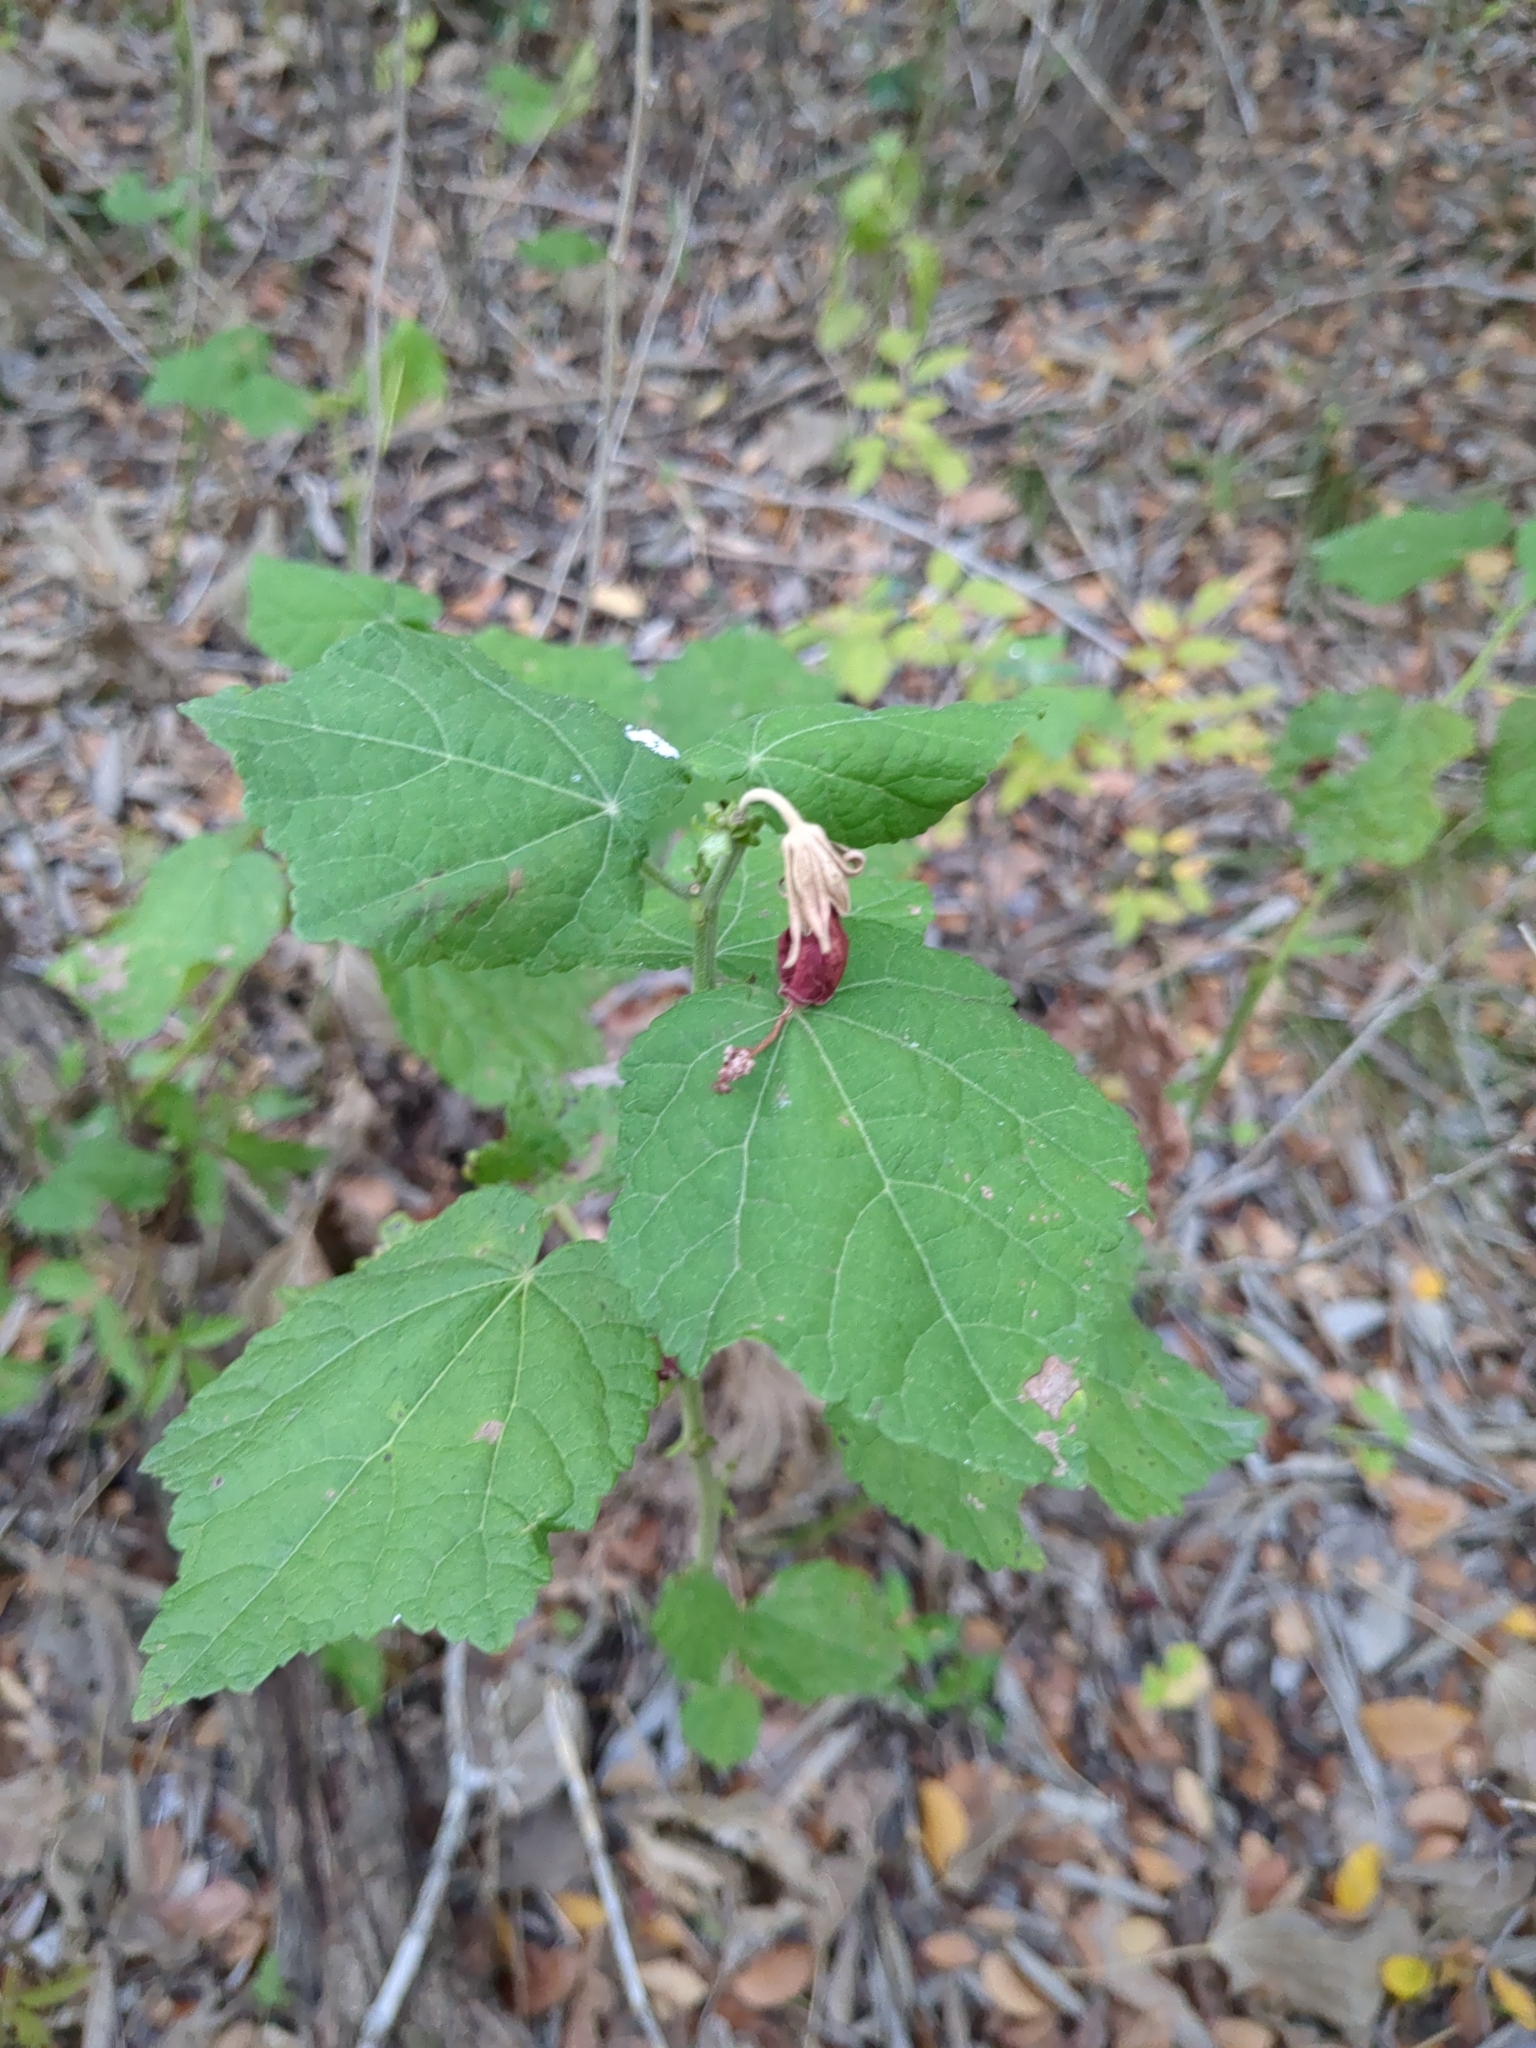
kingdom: Plantae
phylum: Tracheophyta
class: Magnoliopsida
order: Malvales
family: Malvaceae
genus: Malvaviscus
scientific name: Malvaviscus arboreus
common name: Wax mallow
